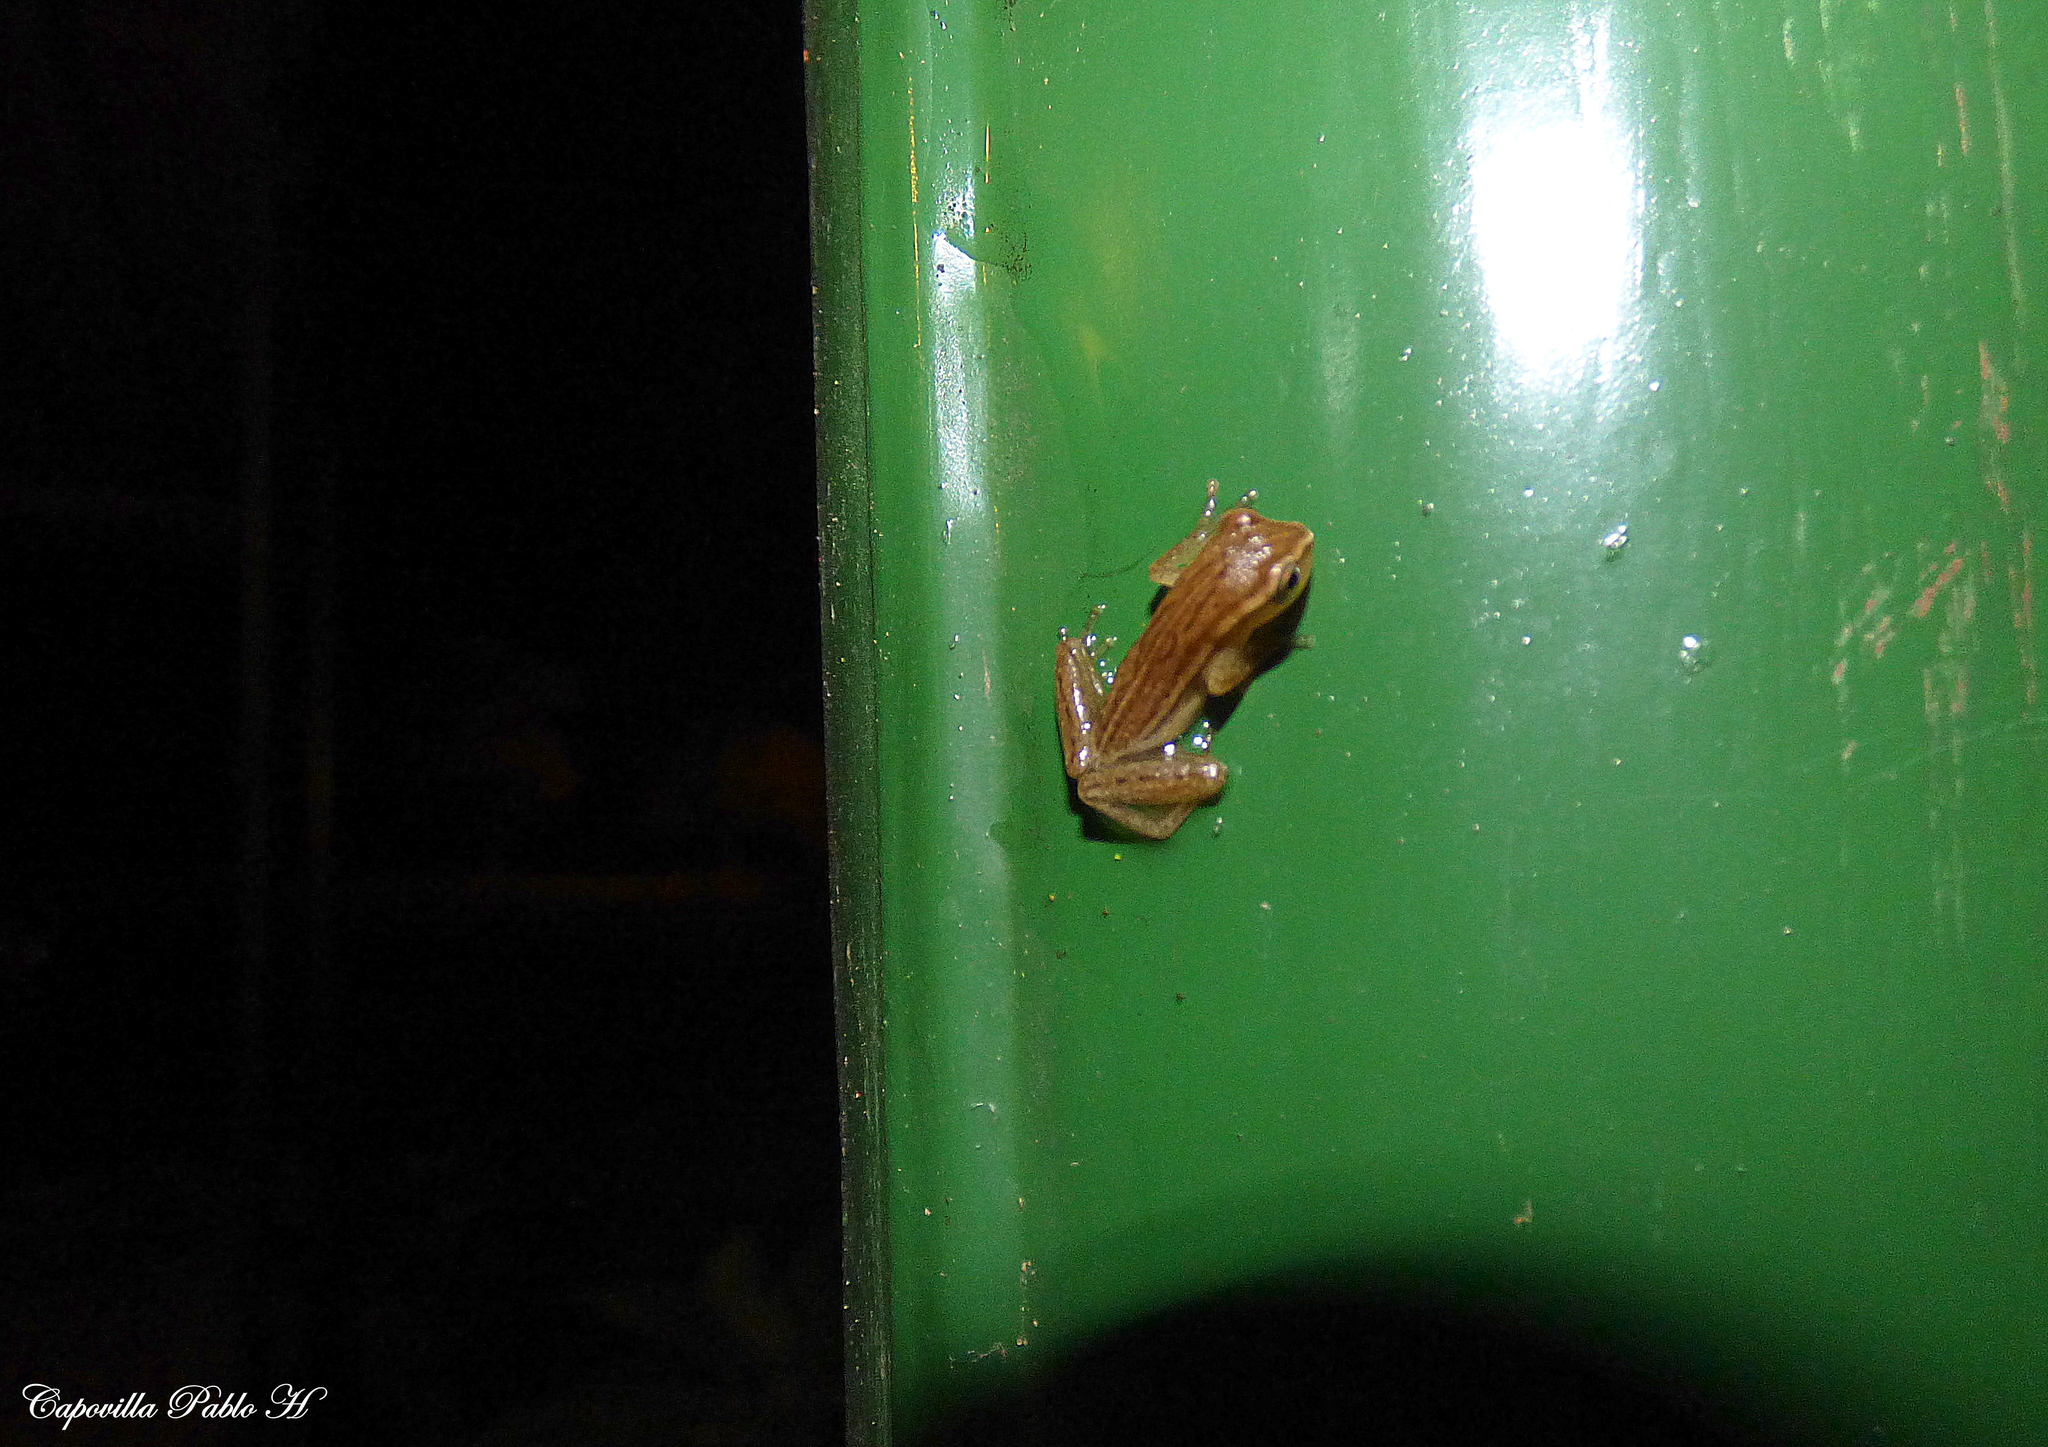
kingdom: Animalia
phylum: Chordata
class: Amphibia
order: Anura
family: Hylidae
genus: Dendropsophus
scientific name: Dendropsophus nanus
